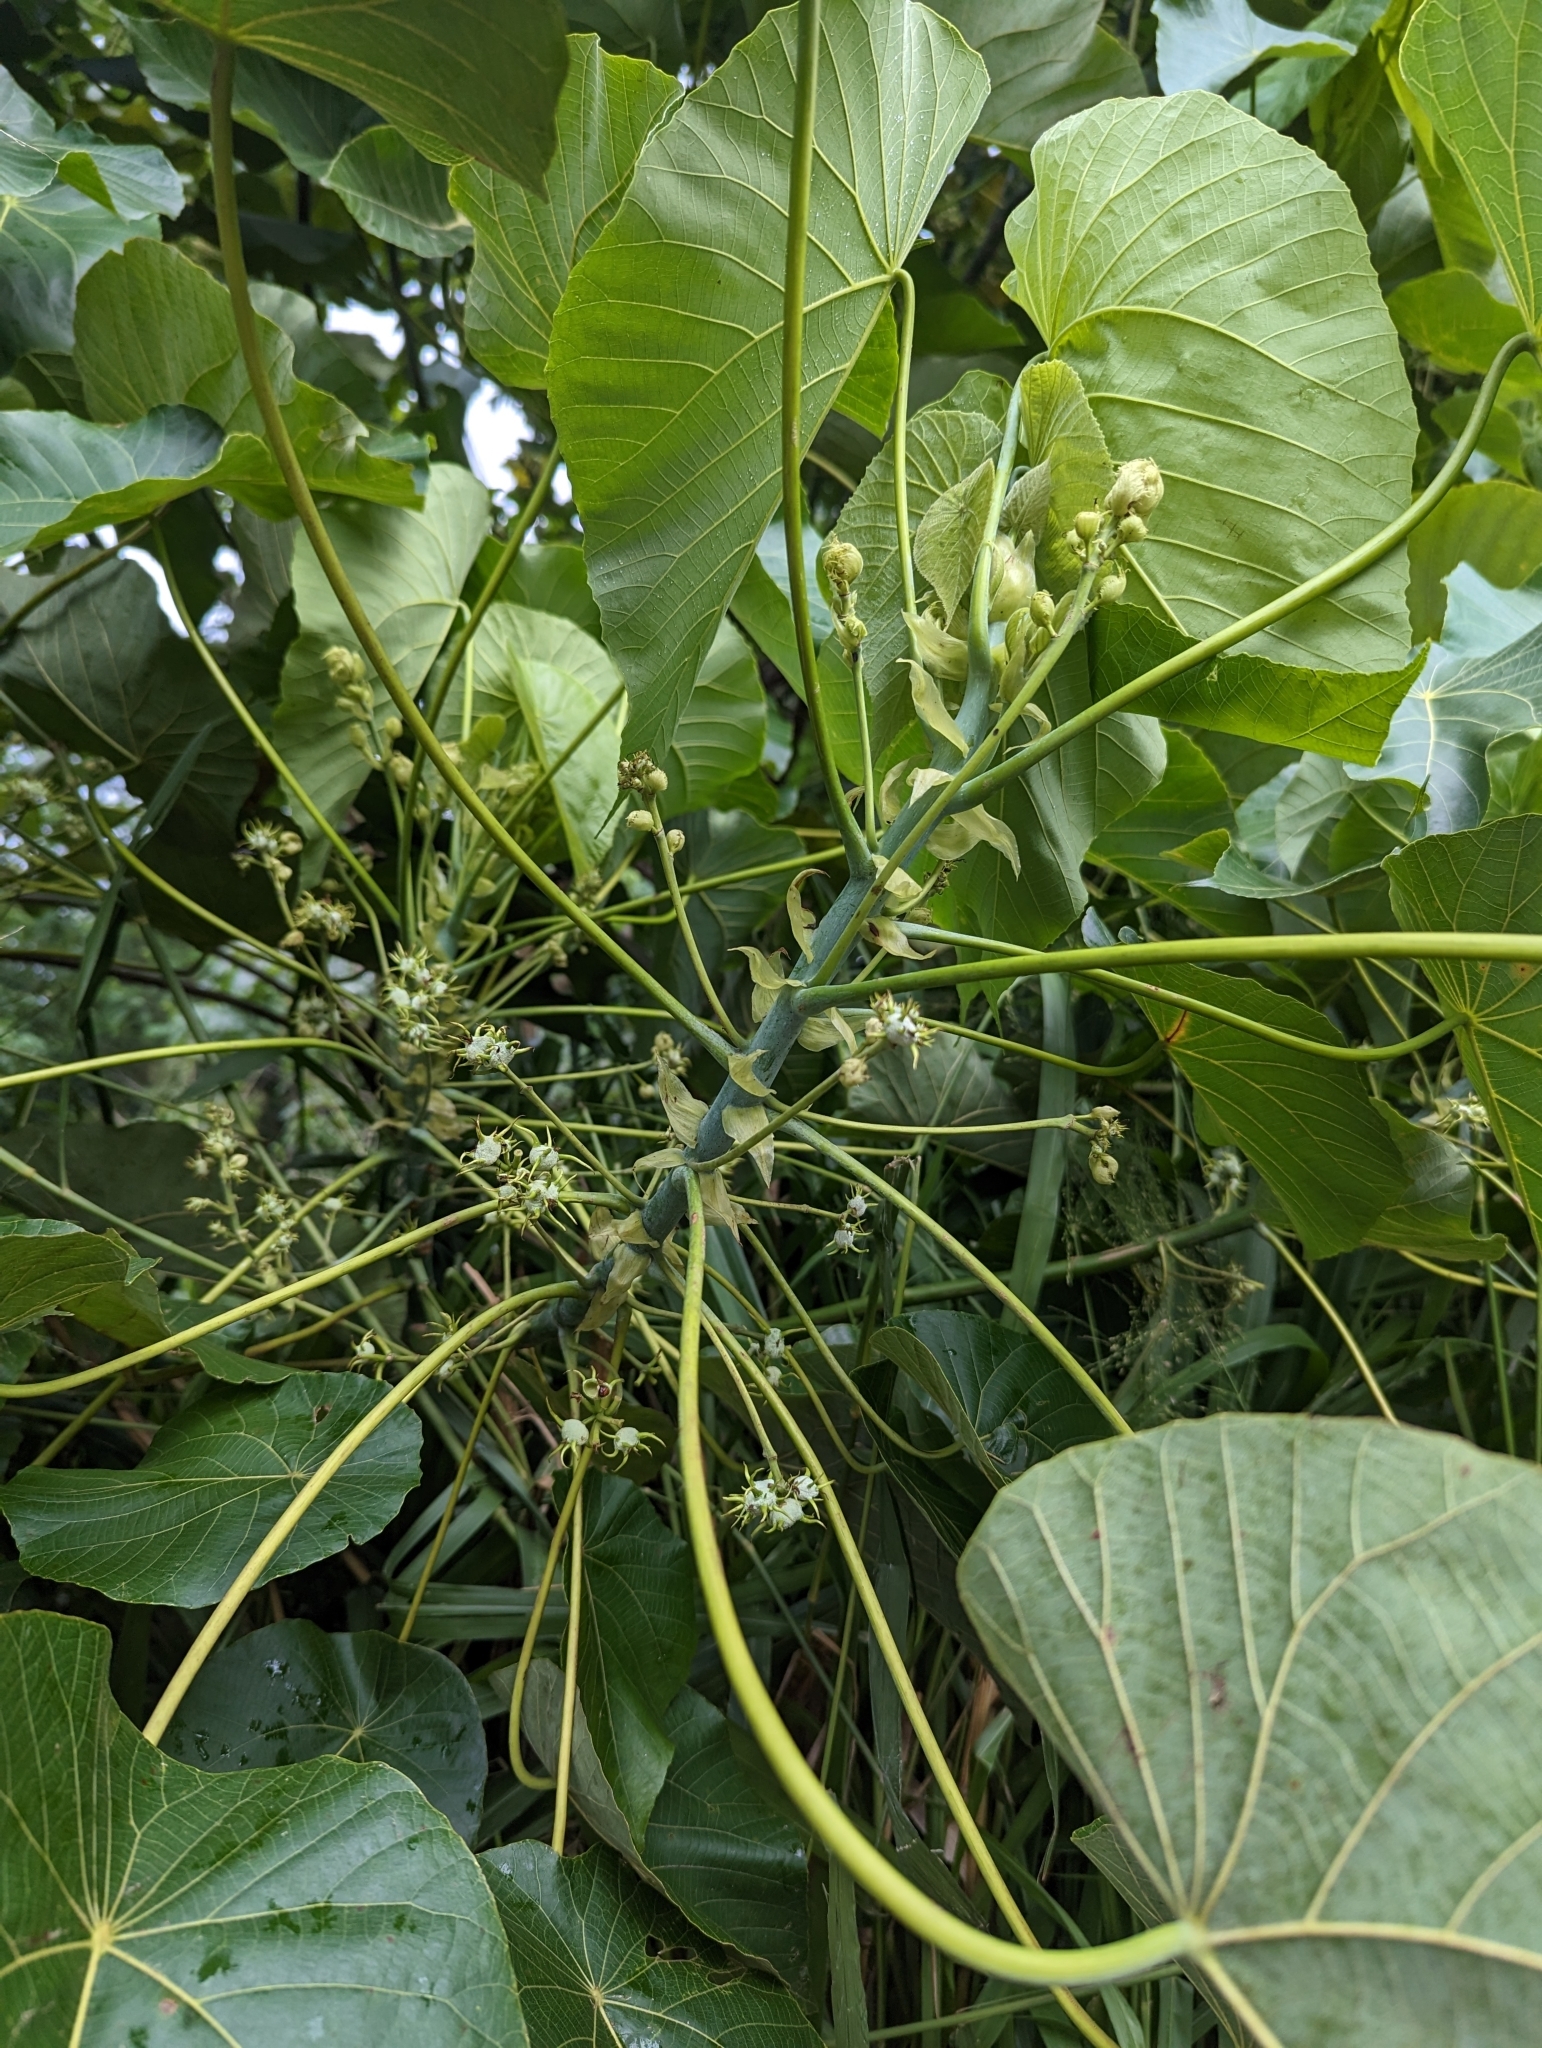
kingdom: Plantae
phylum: Tracheophyta
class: Magnoliopsida
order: Malpighiales
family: Euphorbiaceae
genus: Macaranga
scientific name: Macaranga tanarius
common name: Parasol leaf tree
